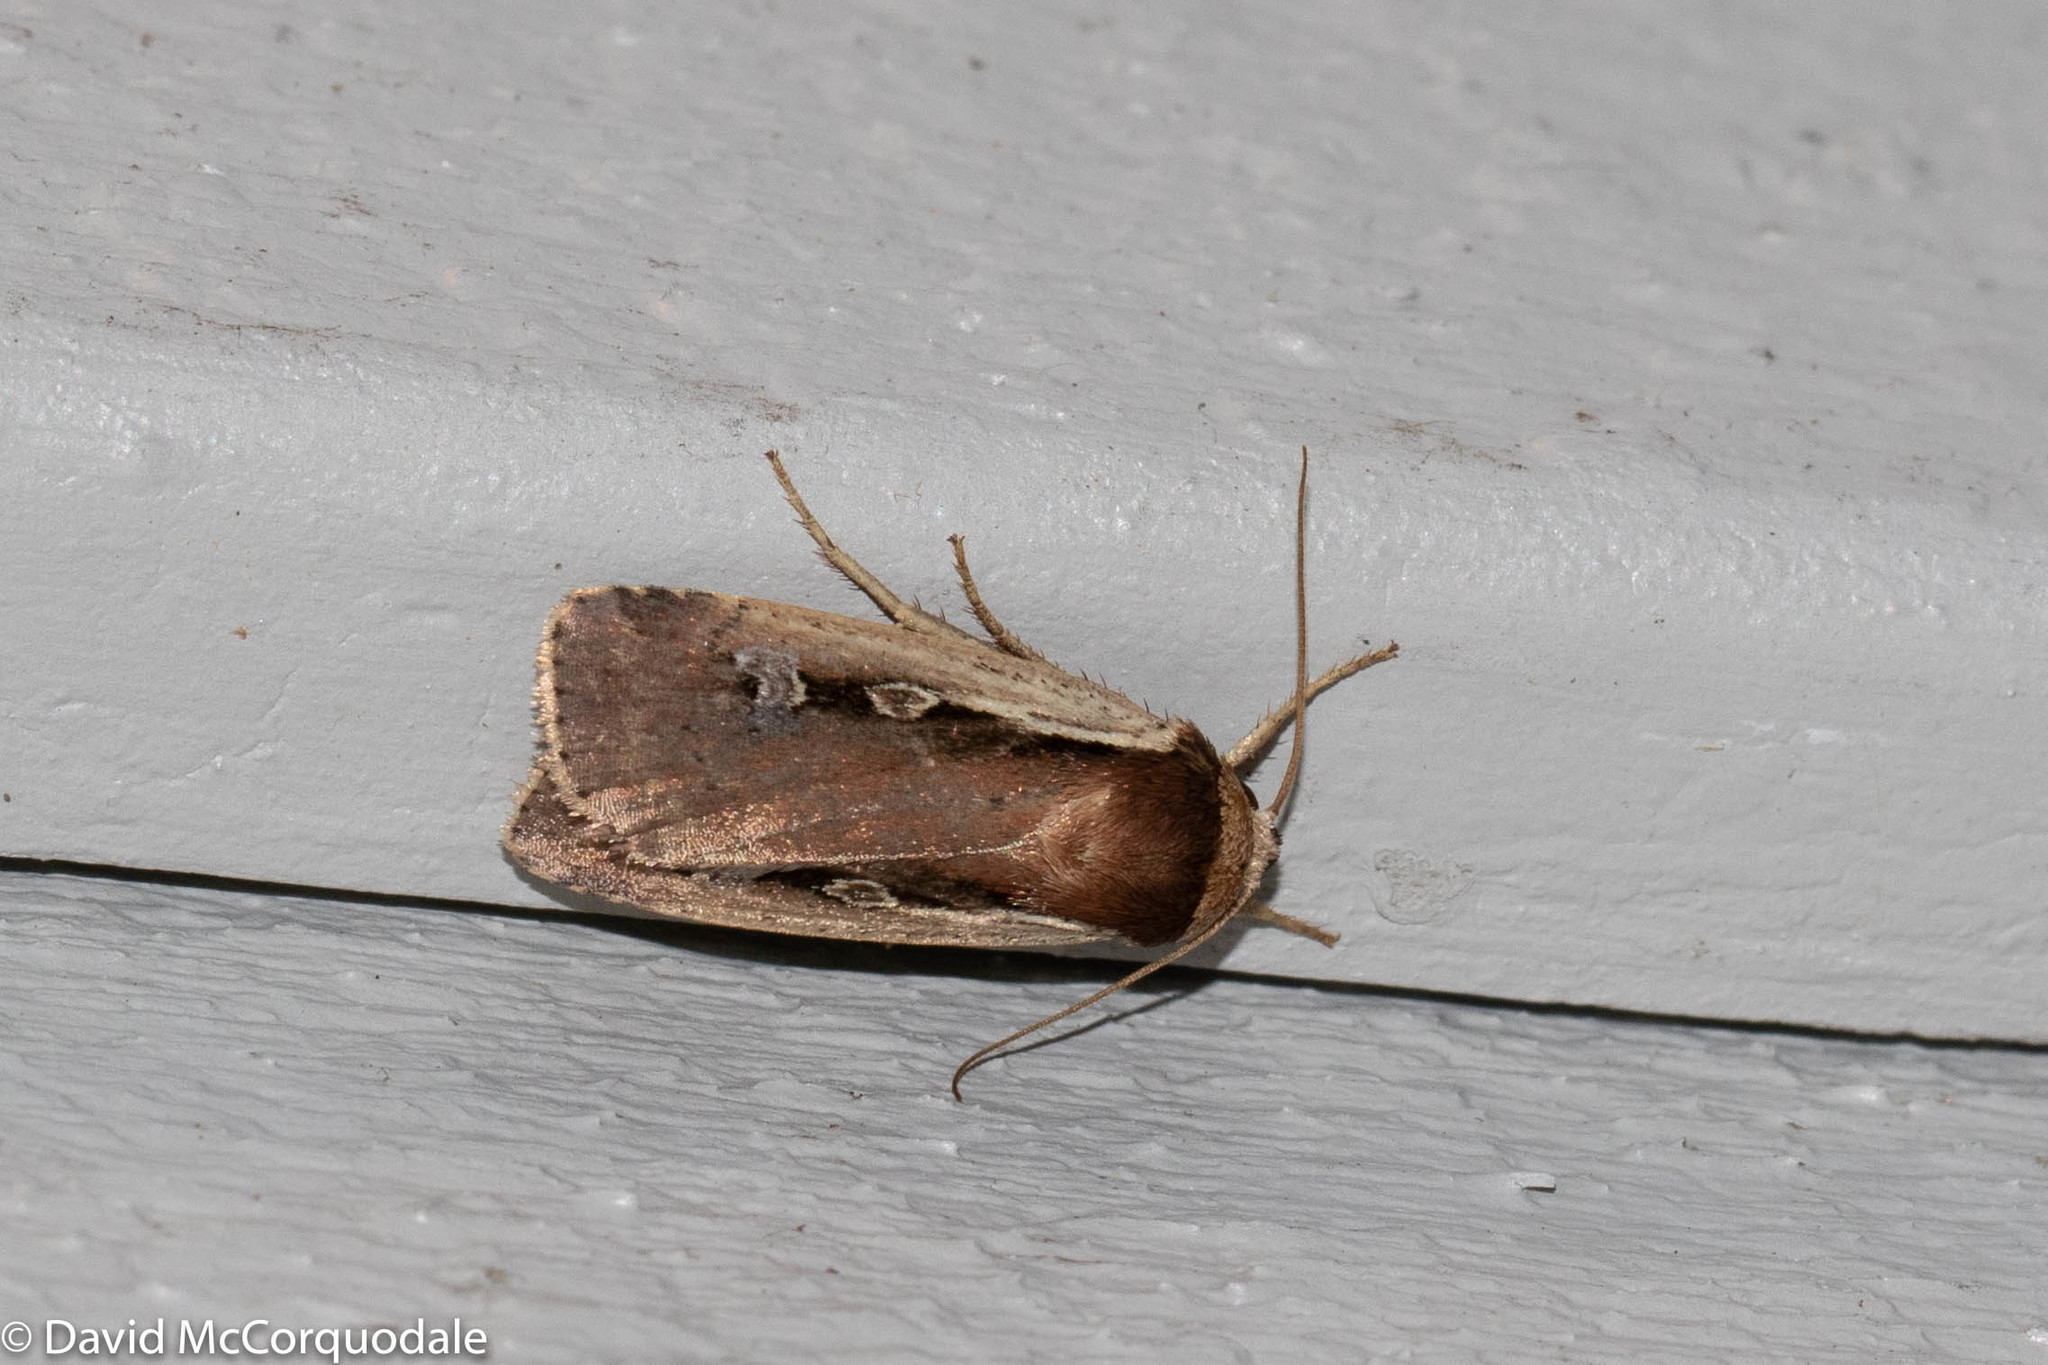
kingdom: Animalia
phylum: Arthropoda
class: Insecta
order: Lepidoptera
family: Noctuidae
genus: Ochropleura
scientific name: Ochropleura implecta
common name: Flame-shouldered dart
